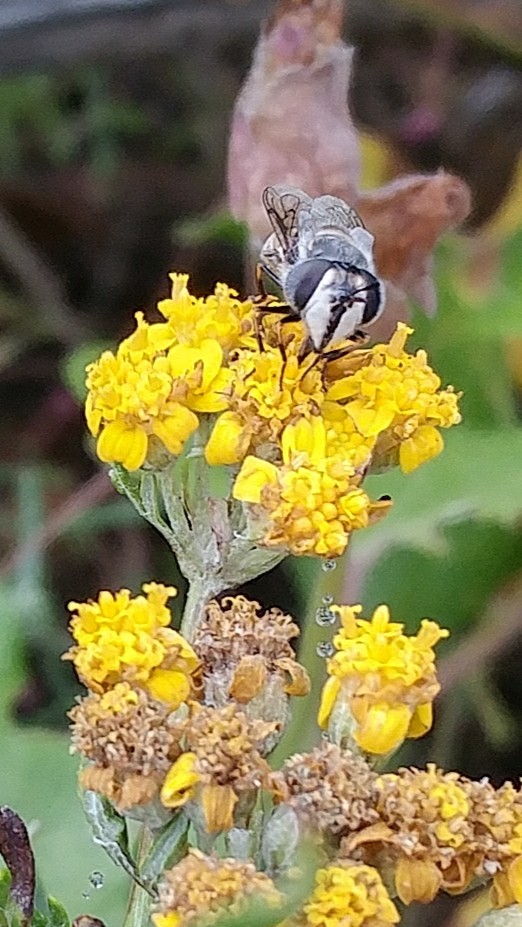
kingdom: Animalia
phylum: Arthropoda
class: Insecta
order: Diptera
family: Syrphidae
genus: Copestylum
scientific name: Copestylum
